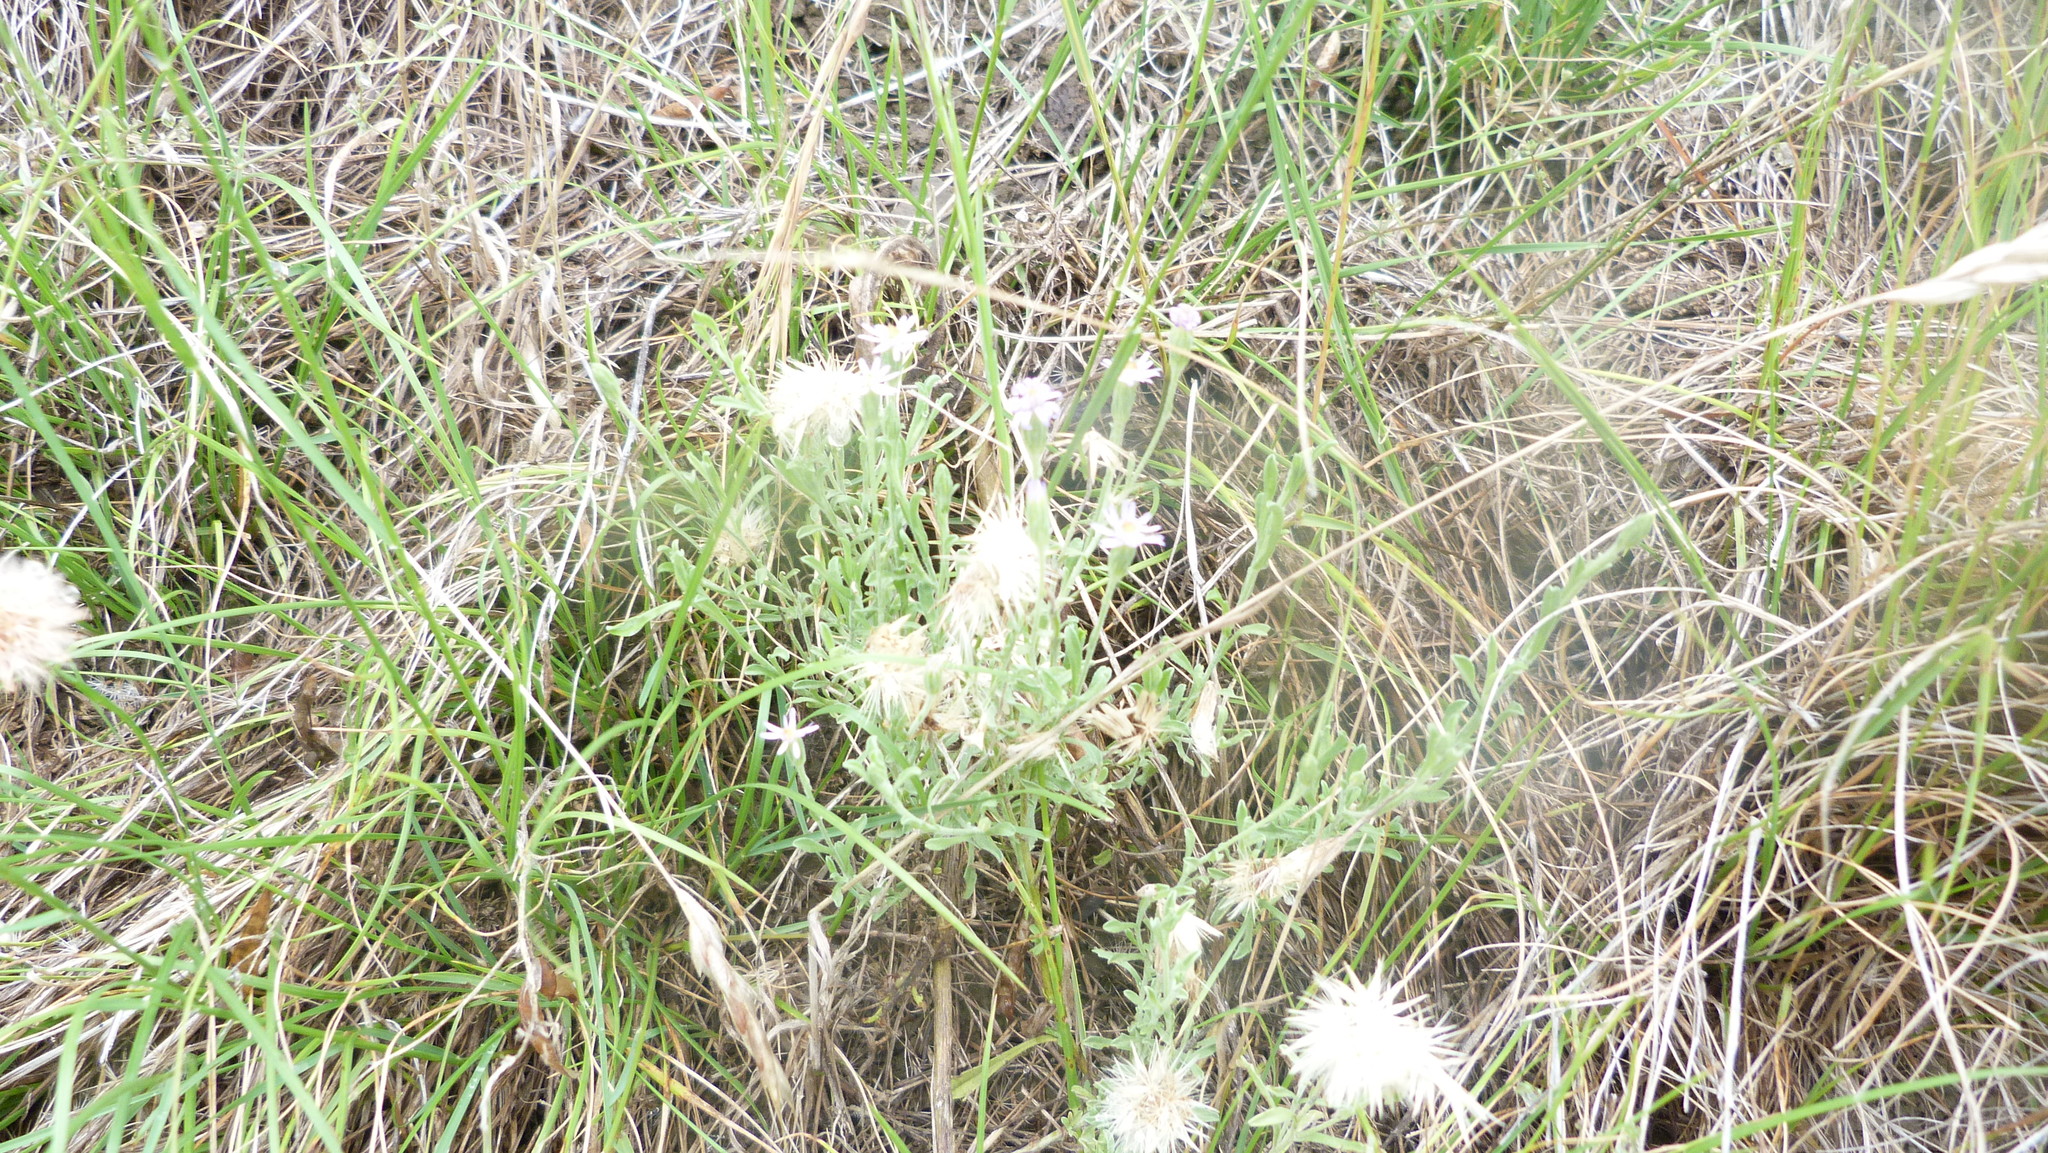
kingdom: Plantae
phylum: Tracheophyta
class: Magnoliopsida
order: Asterales
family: Asteraceae
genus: Vittadinia
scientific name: Vittadinia gracilis
